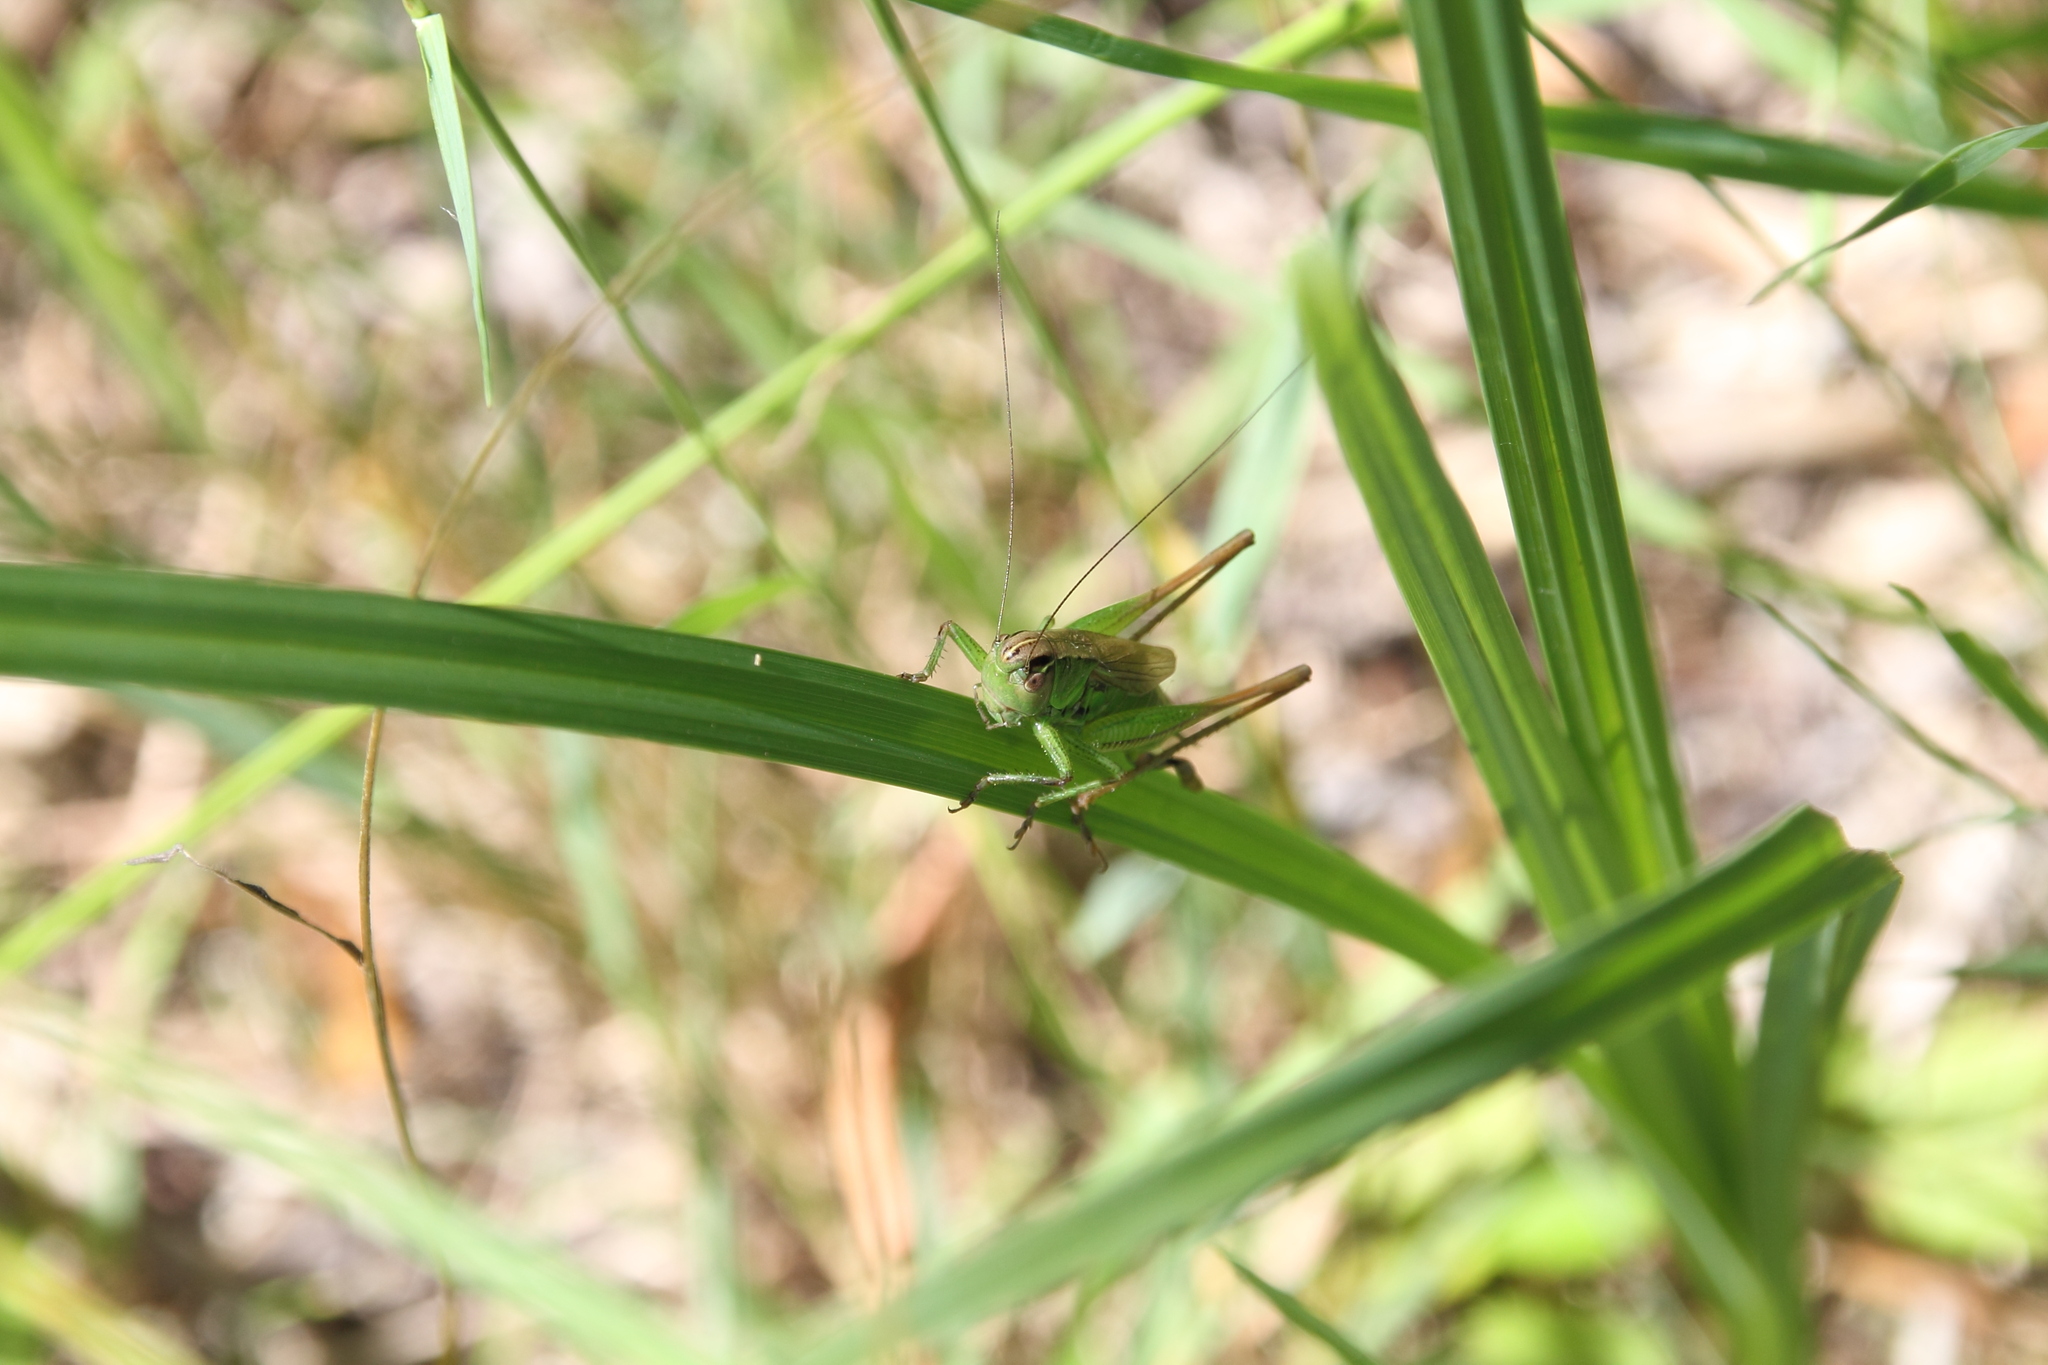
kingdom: Animalia
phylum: Arthropoda
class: Insecta
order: Orthoptera
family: Tettigoniidae
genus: Roeseliana
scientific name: Roeseliana roeselii
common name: Roesel's bush cricket
